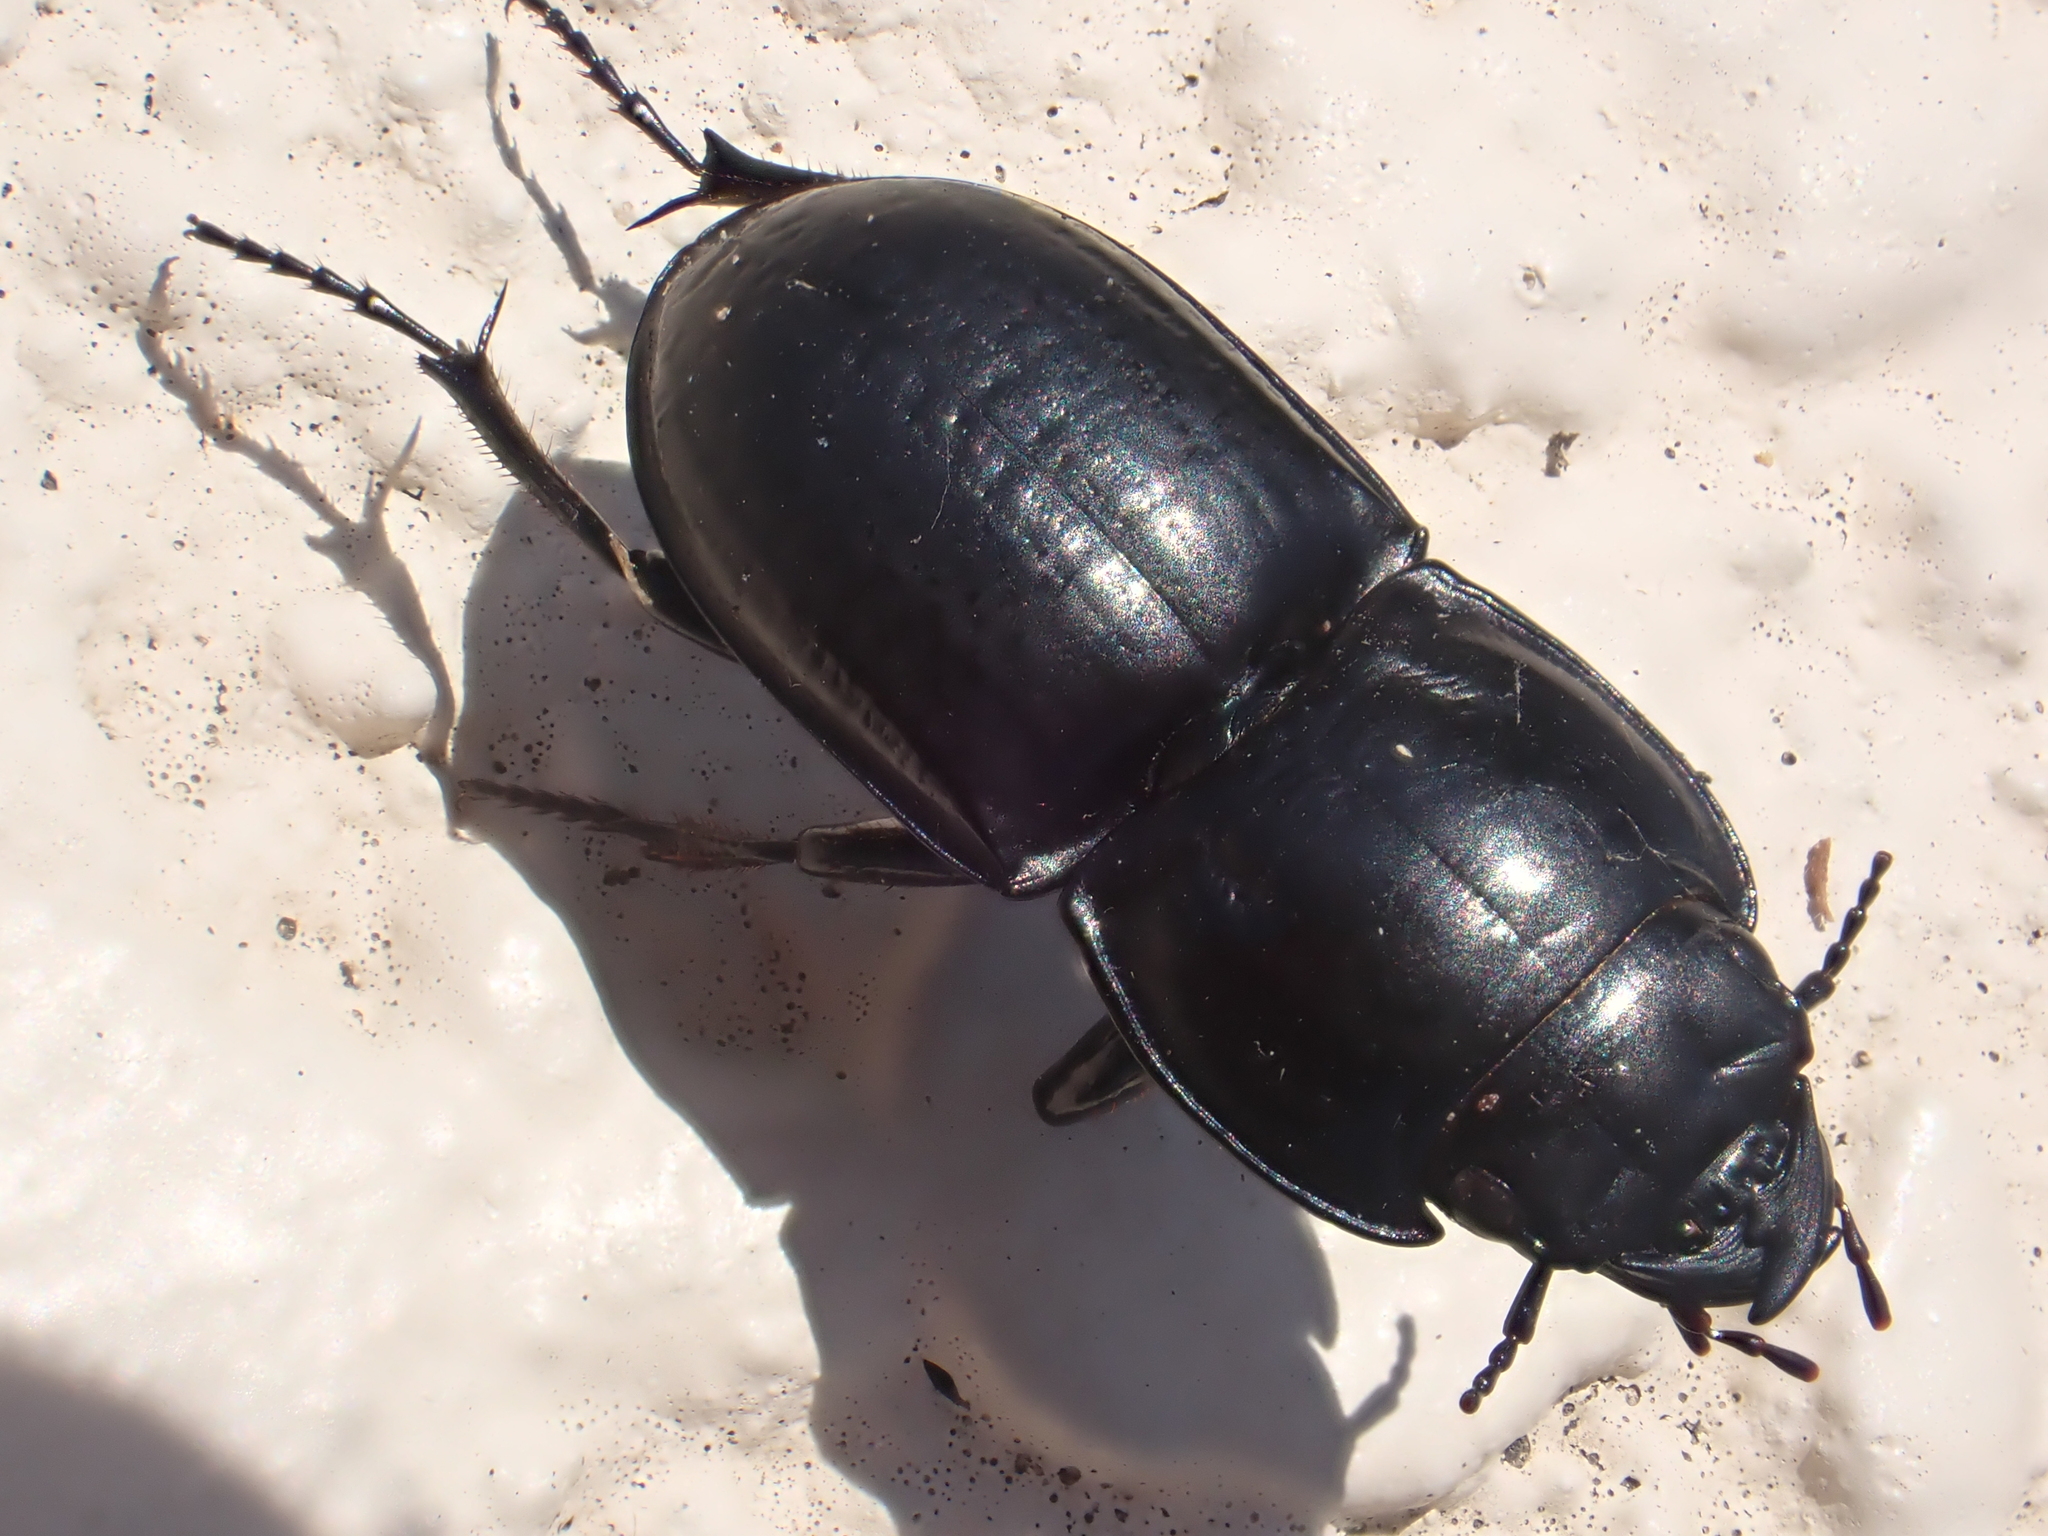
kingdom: Animalia
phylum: Arthropoda
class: Insecta
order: Coleoptera
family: Carabidae
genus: Pasimachus
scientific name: Pasimachus sublaevis
